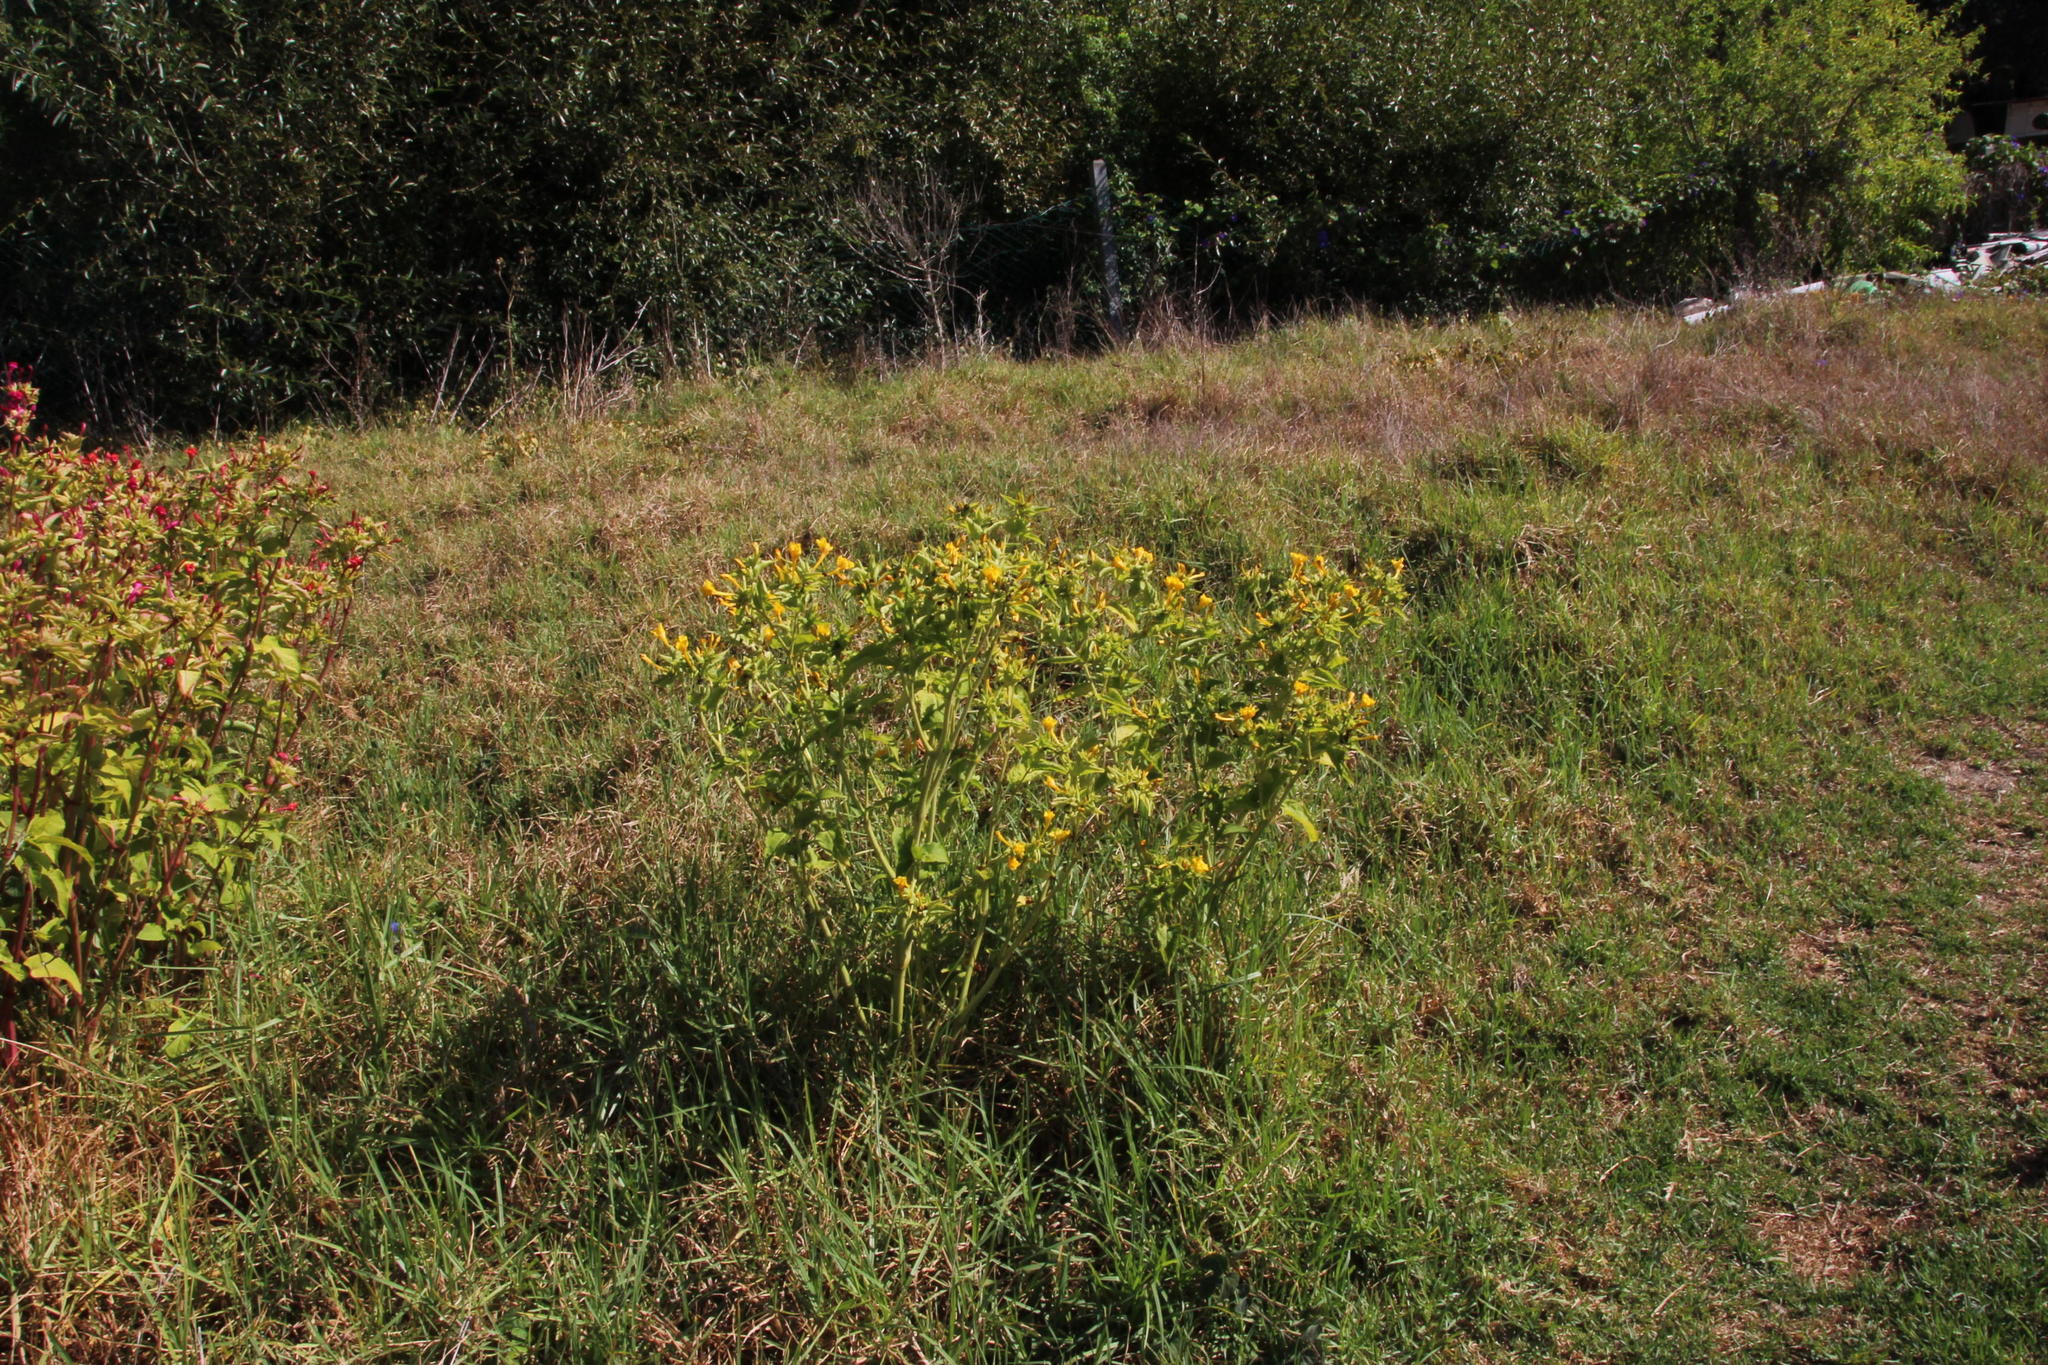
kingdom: Plantae
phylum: Tracheophyta
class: Magnoliopsida
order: Caryophyllales
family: Nyctaginaceae
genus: Mirabilis
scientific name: Mirabilis jalapa
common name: Marvel-of-peru
